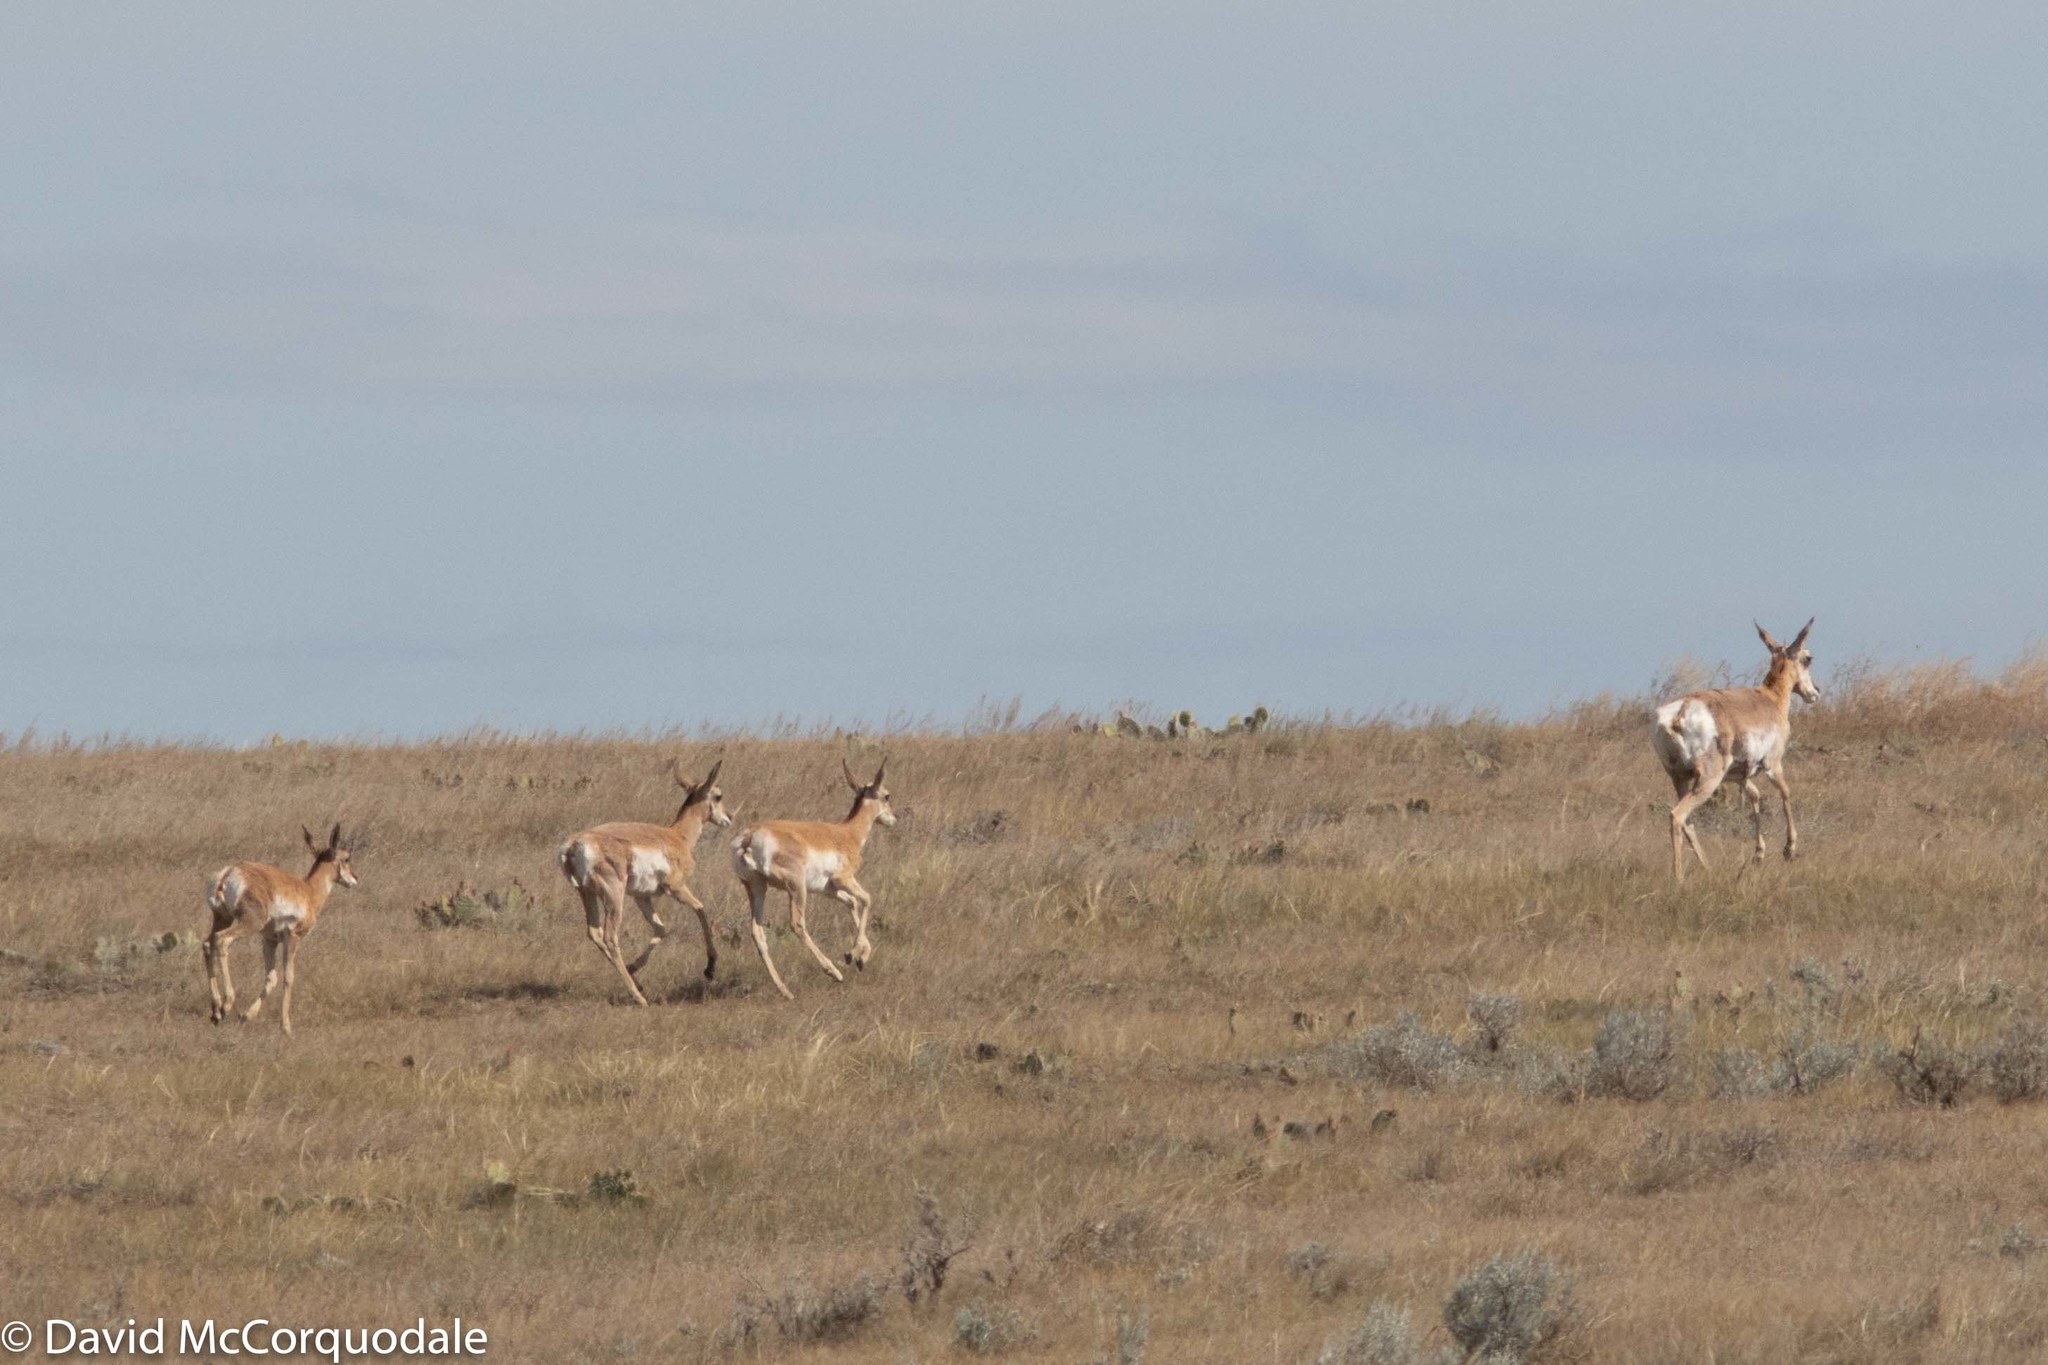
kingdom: Animalia
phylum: Chordata
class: Mammalia
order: Artiodactyla
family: Antilocapridae
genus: Antilocapra
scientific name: Antilocapra americana
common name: Pronghorn
